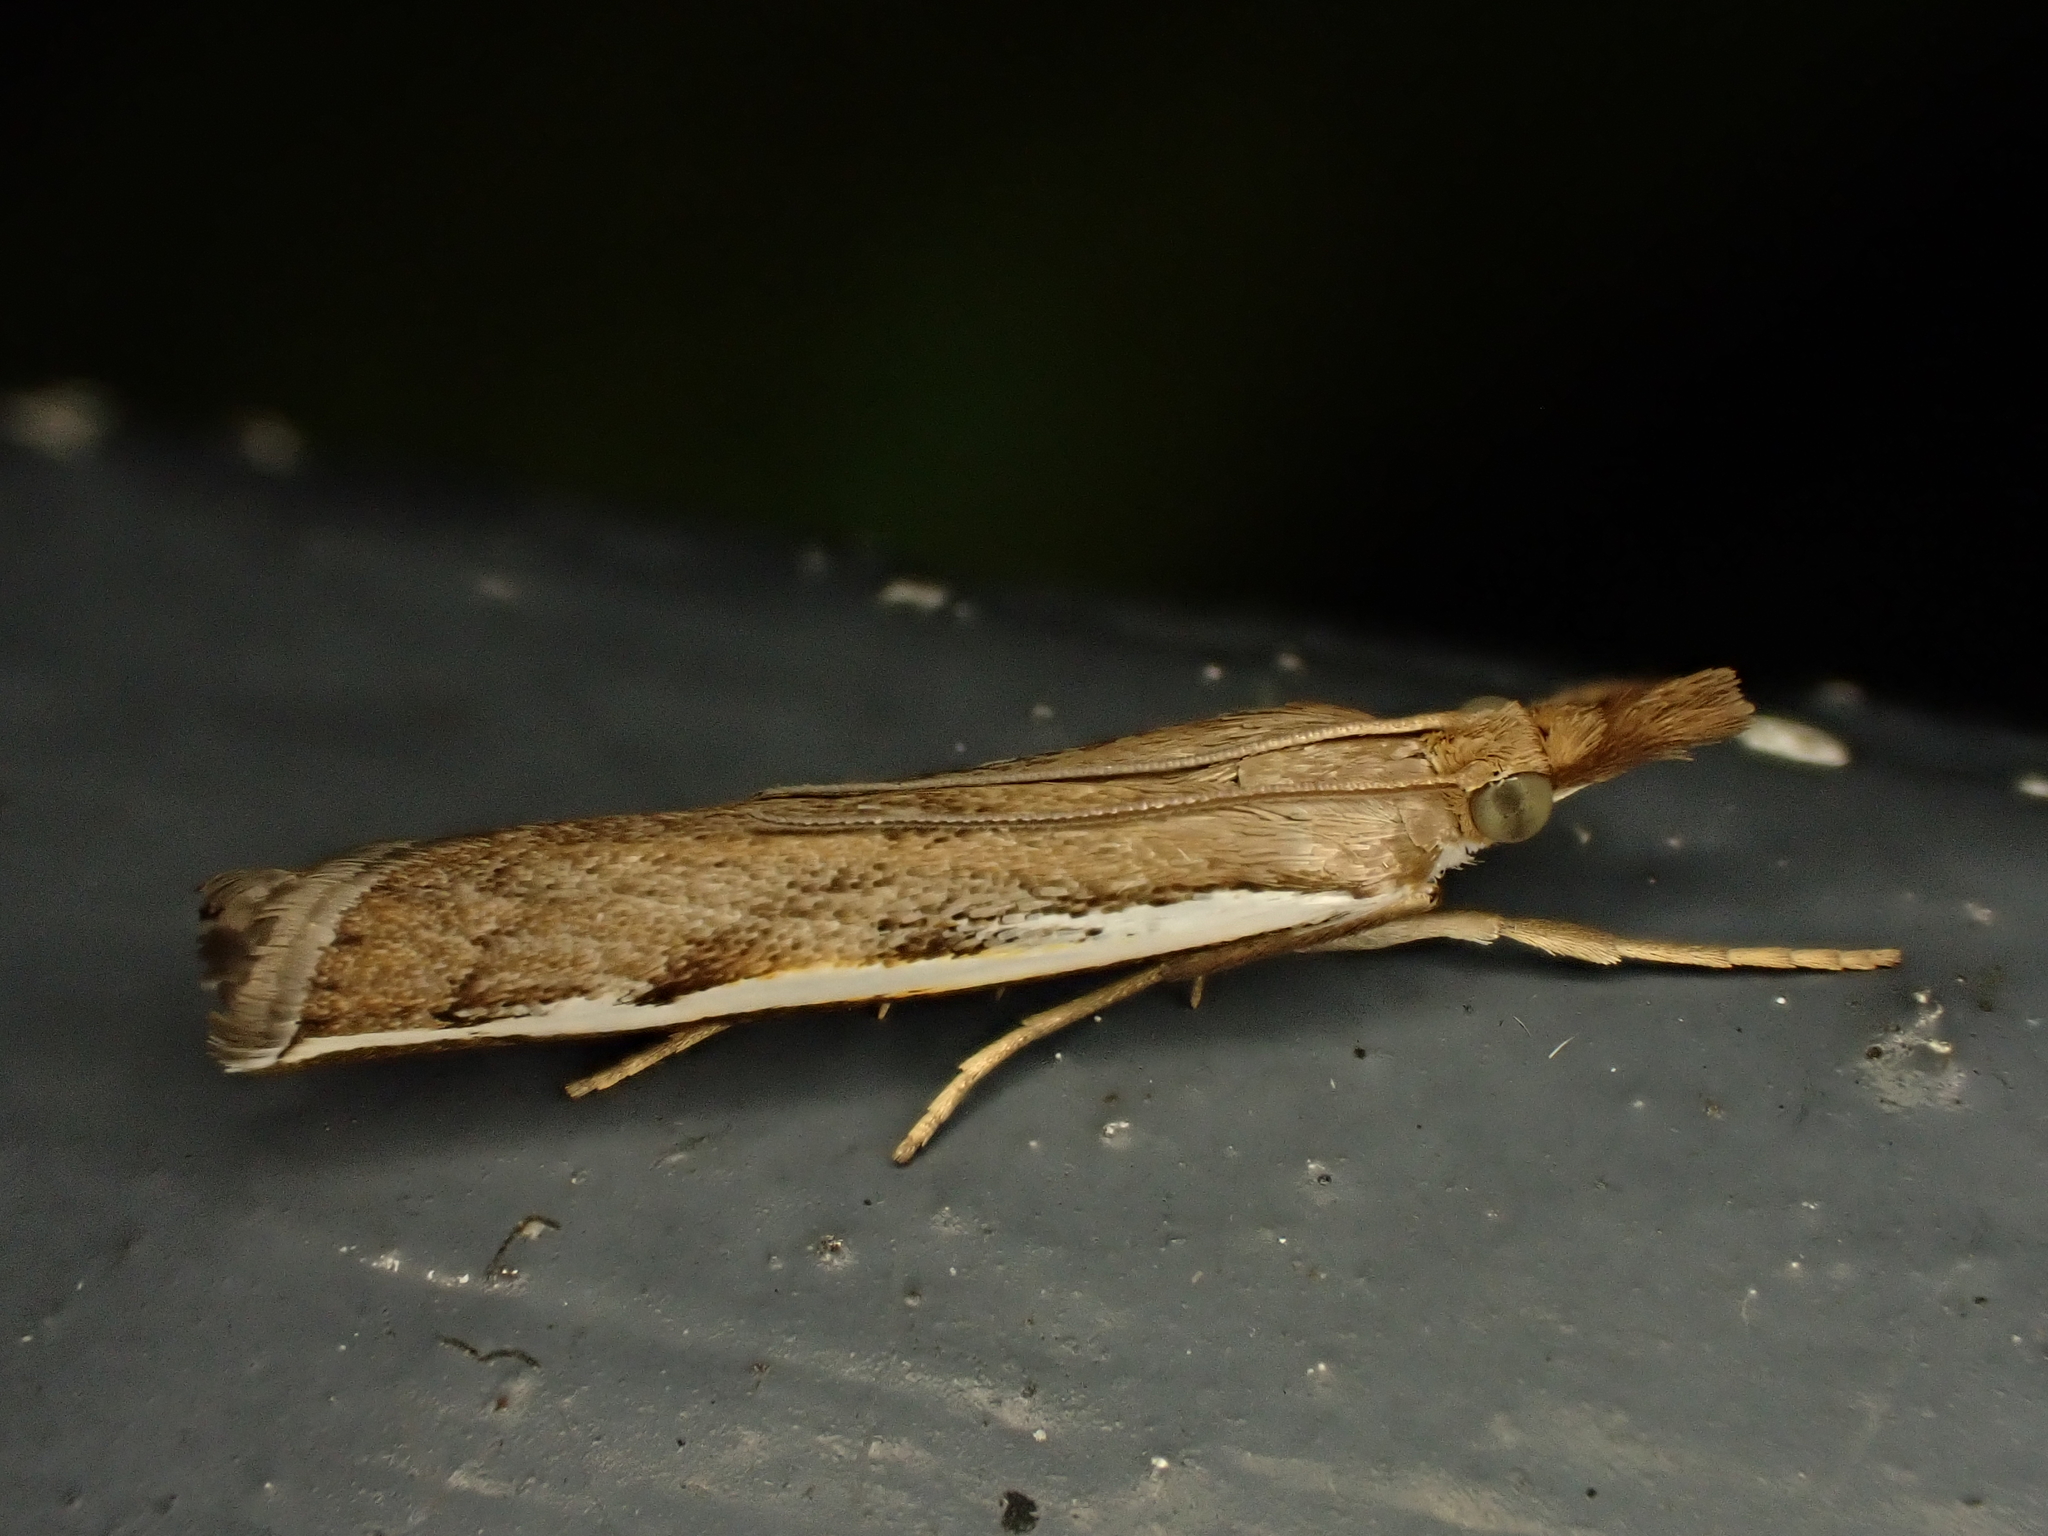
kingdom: Animalia
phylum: Arthropoda
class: Insecta
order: Lepidoptera
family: Crambidae
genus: Orocrambus
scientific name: Orocrambus flexuosellus
